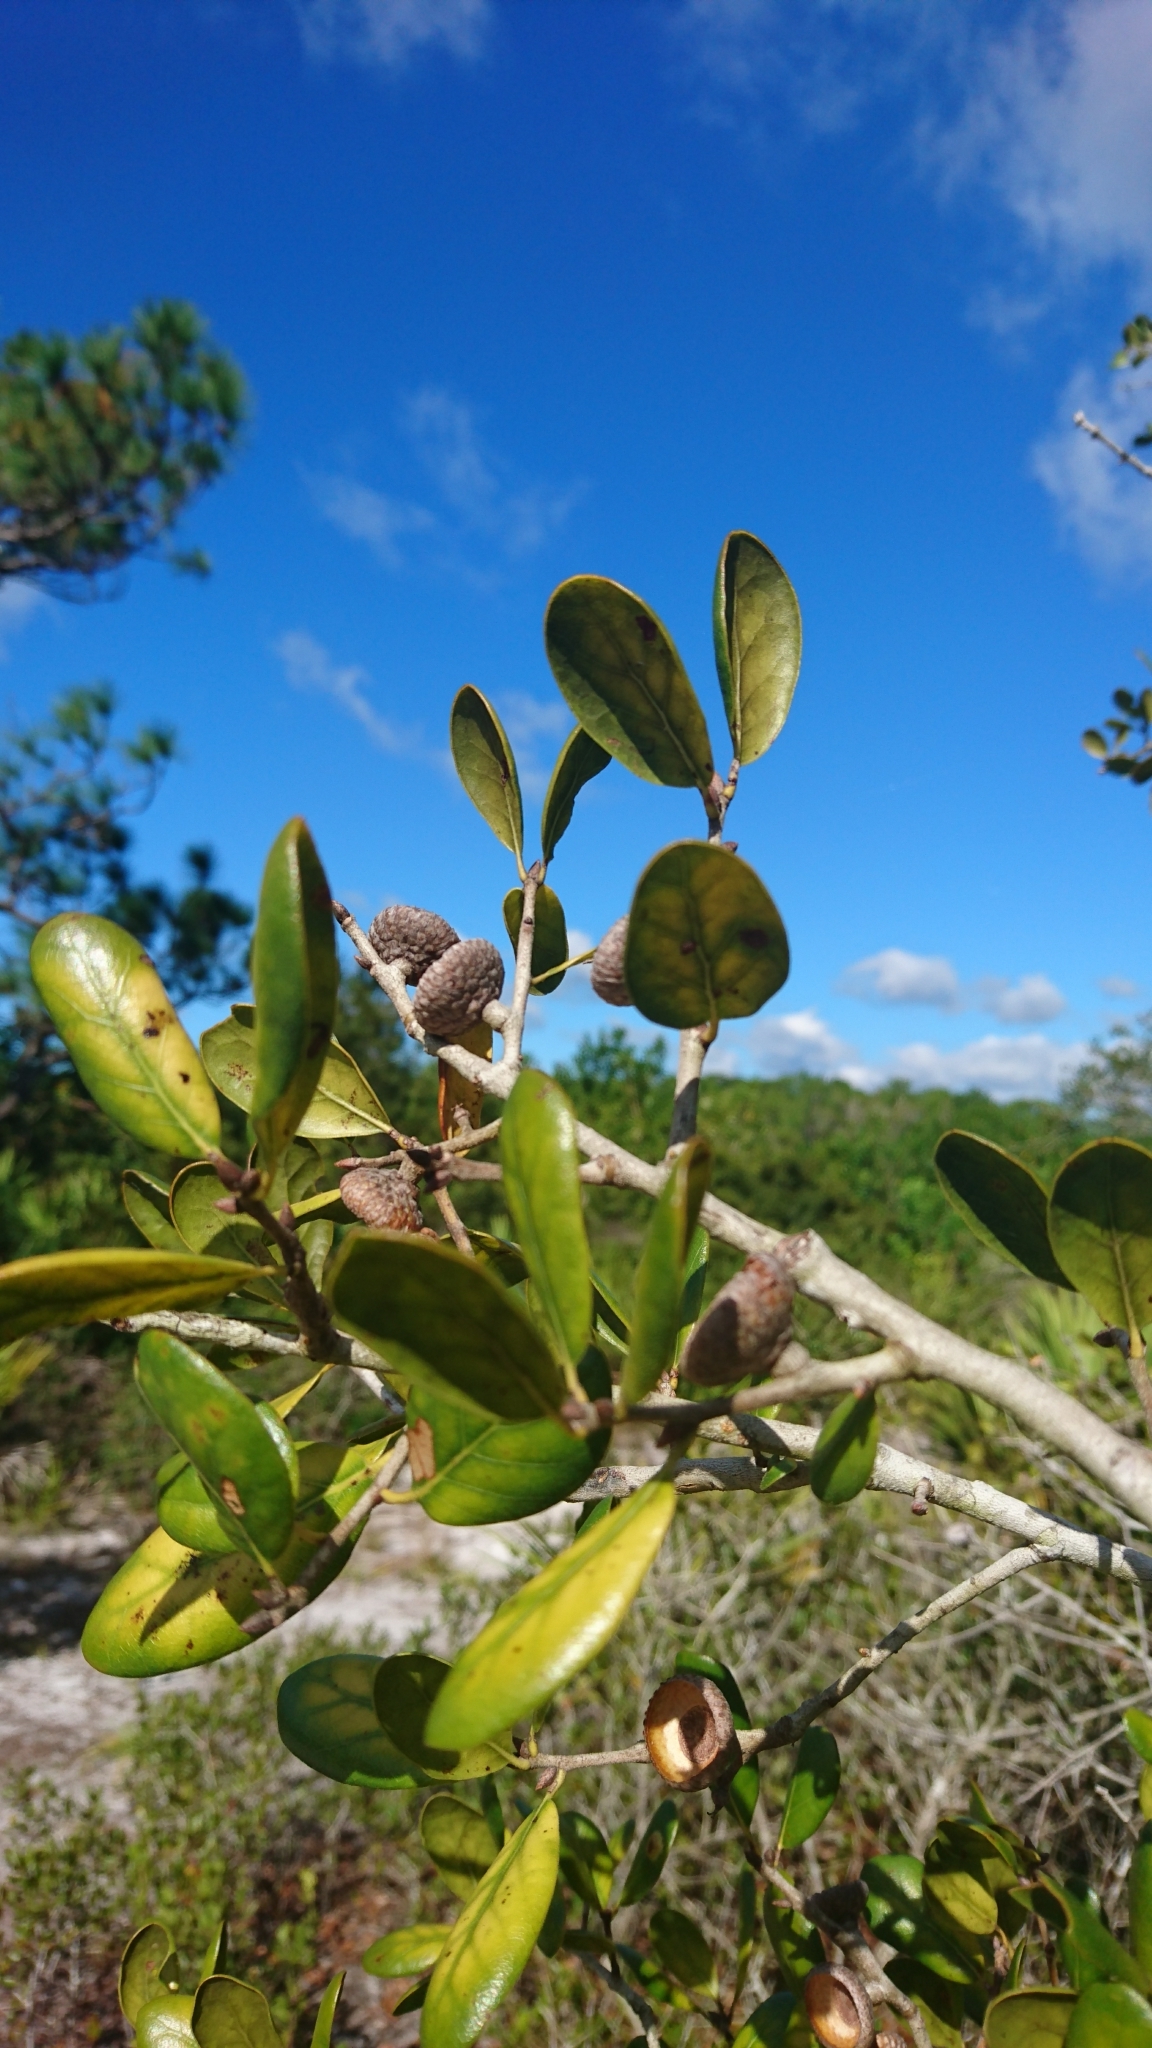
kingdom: Plantae
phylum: Tracheophyta
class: Magnoliopsida
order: Fagales
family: Fagaceae
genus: Quercus
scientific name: Quercus myrtifolia
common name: Myrtle oak
